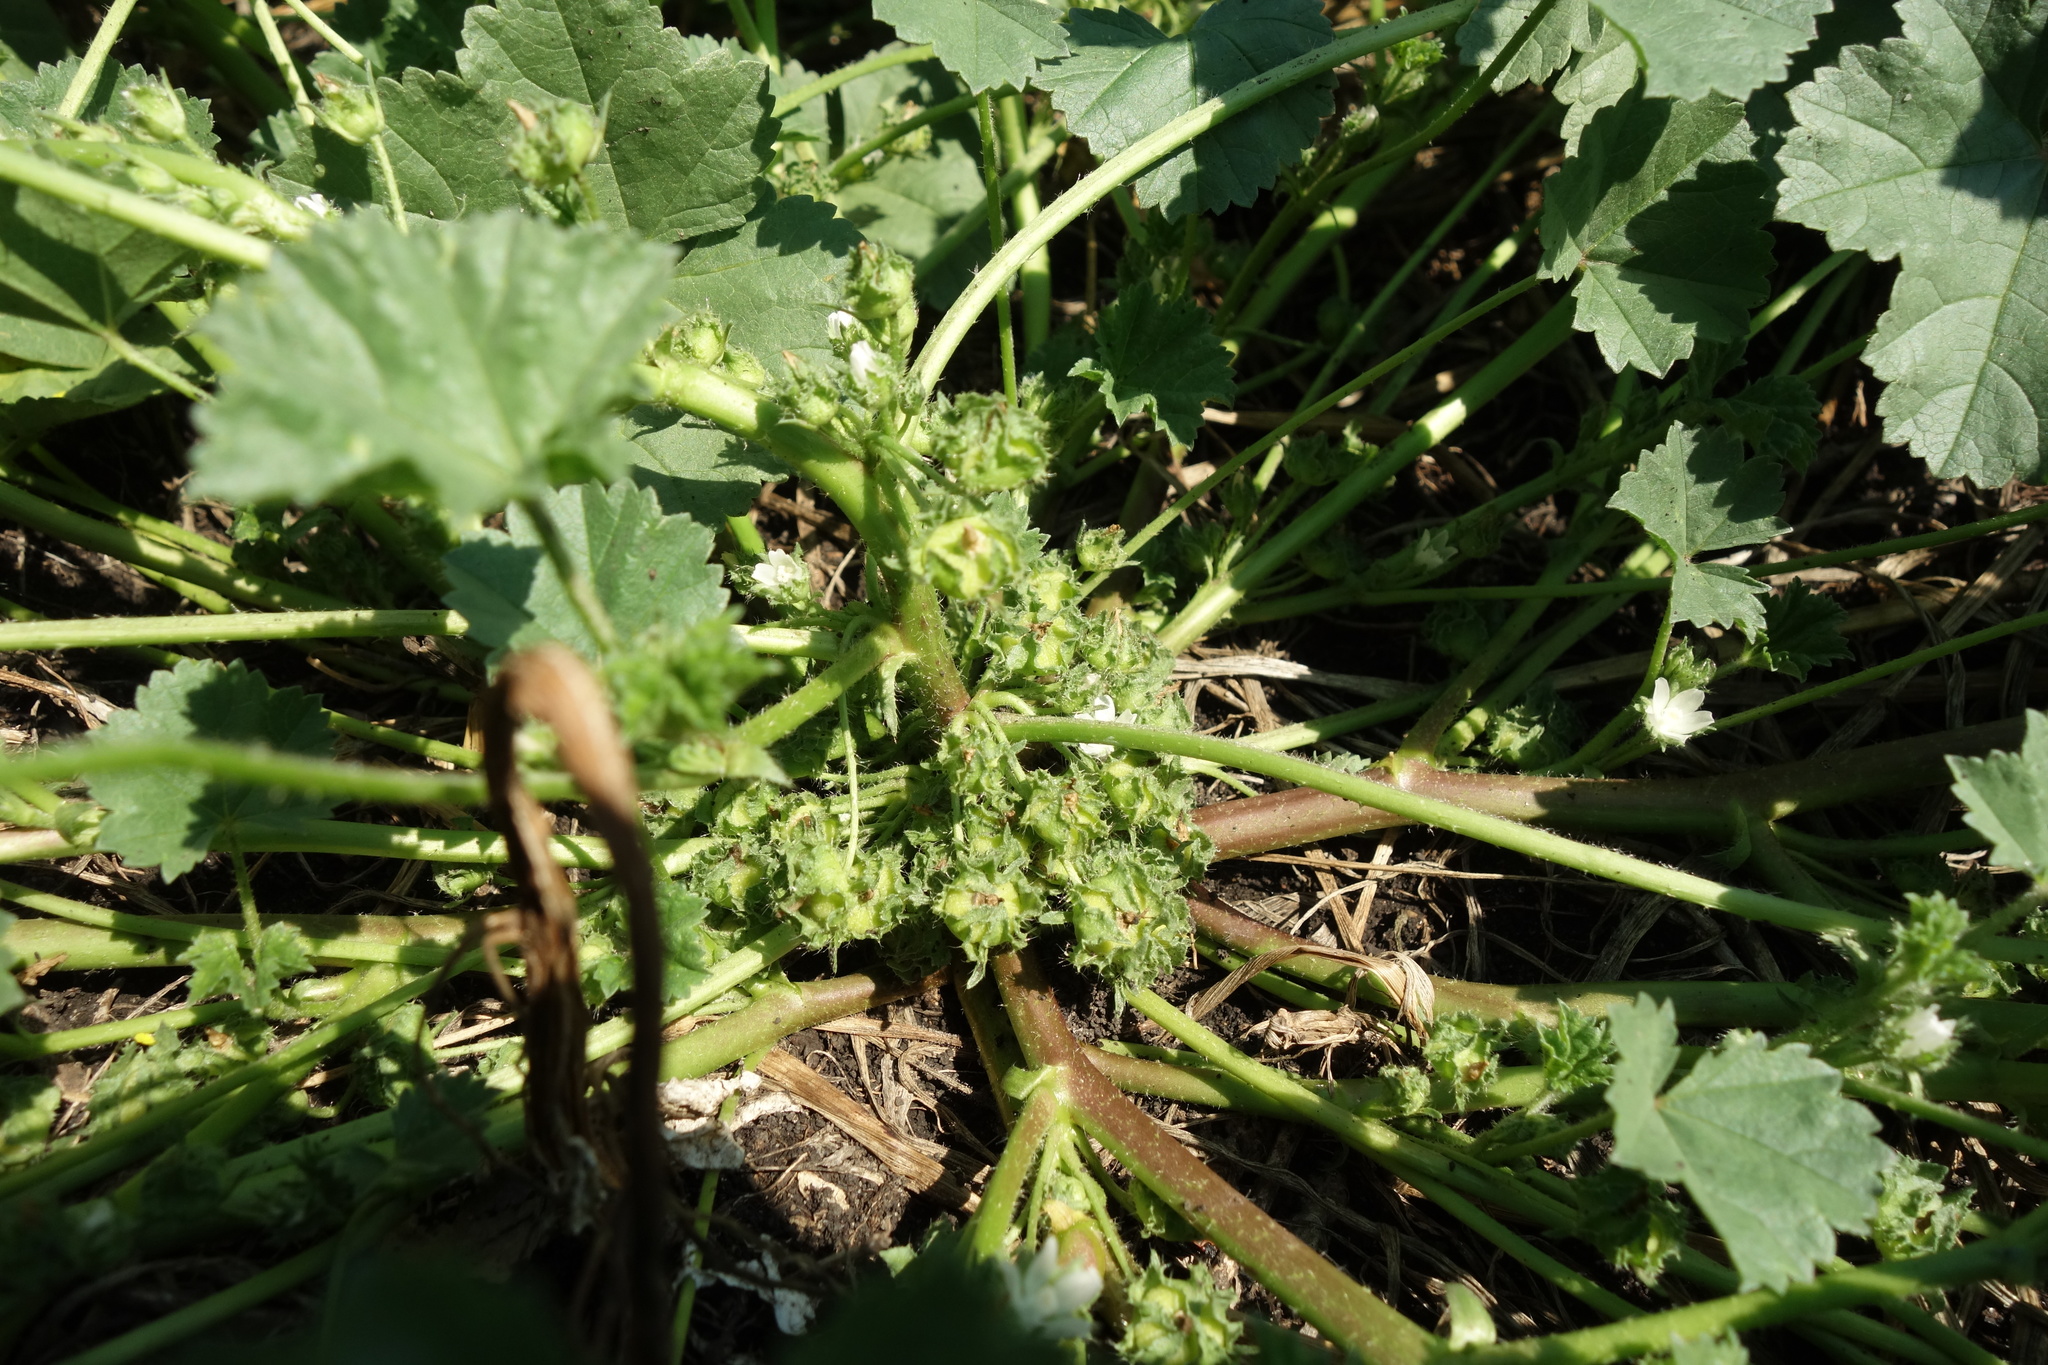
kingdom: Plantae
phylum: Tracheophyta
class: Magnoliopsida
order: Malvales
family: Malvaceae
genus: Malva
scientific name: Malva pusilla
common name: Small mallow
